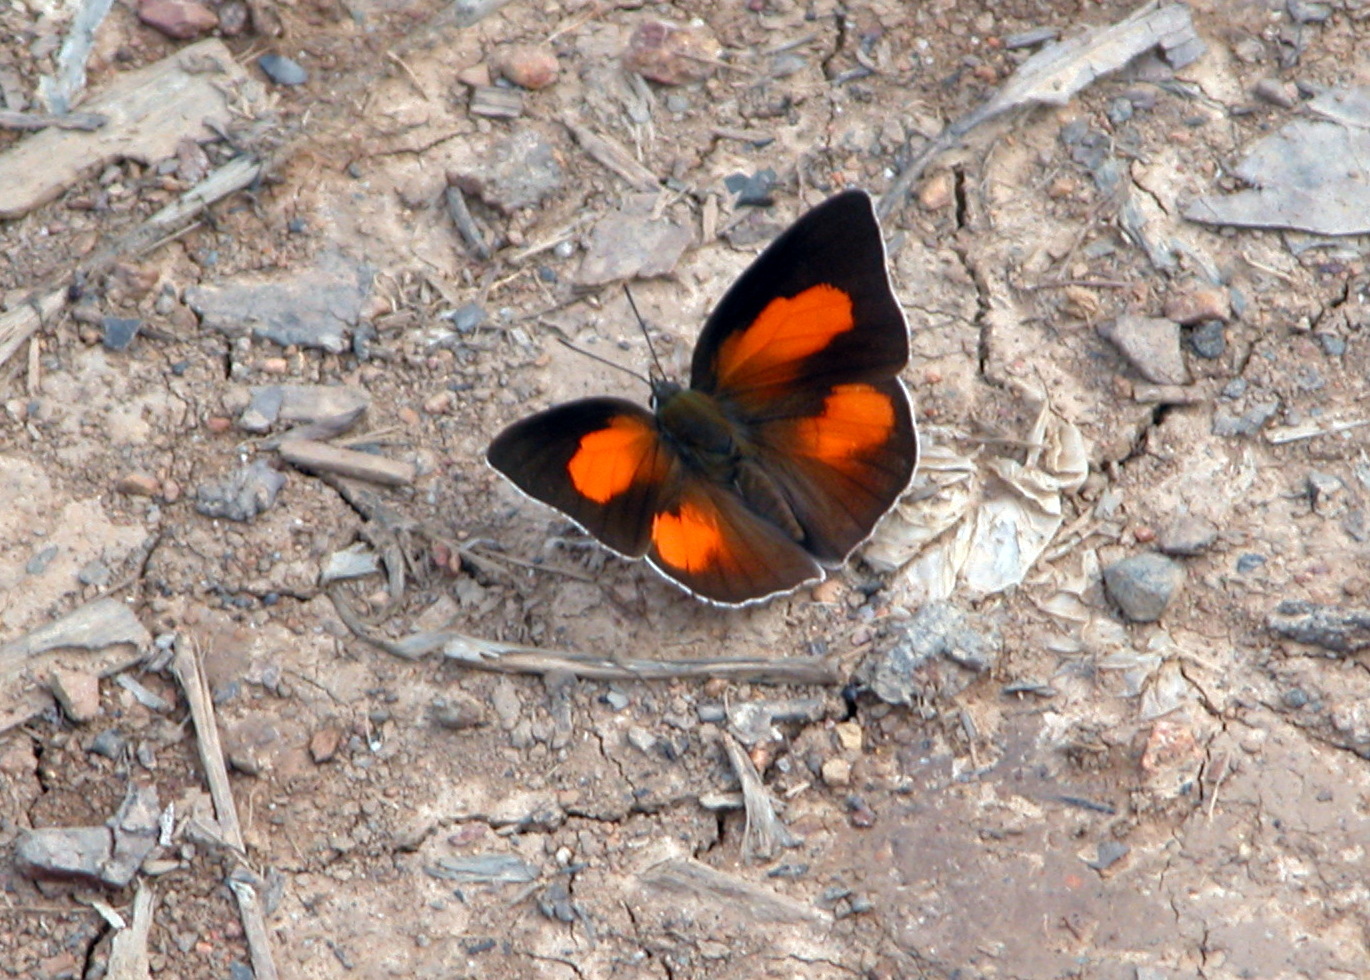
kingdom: Animalia
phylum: Arthropoda
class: Insecta
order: Lepidoptera
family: Lycaenidae
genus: Curetis
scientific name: Curetis bulis
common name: Bright sunbeam
